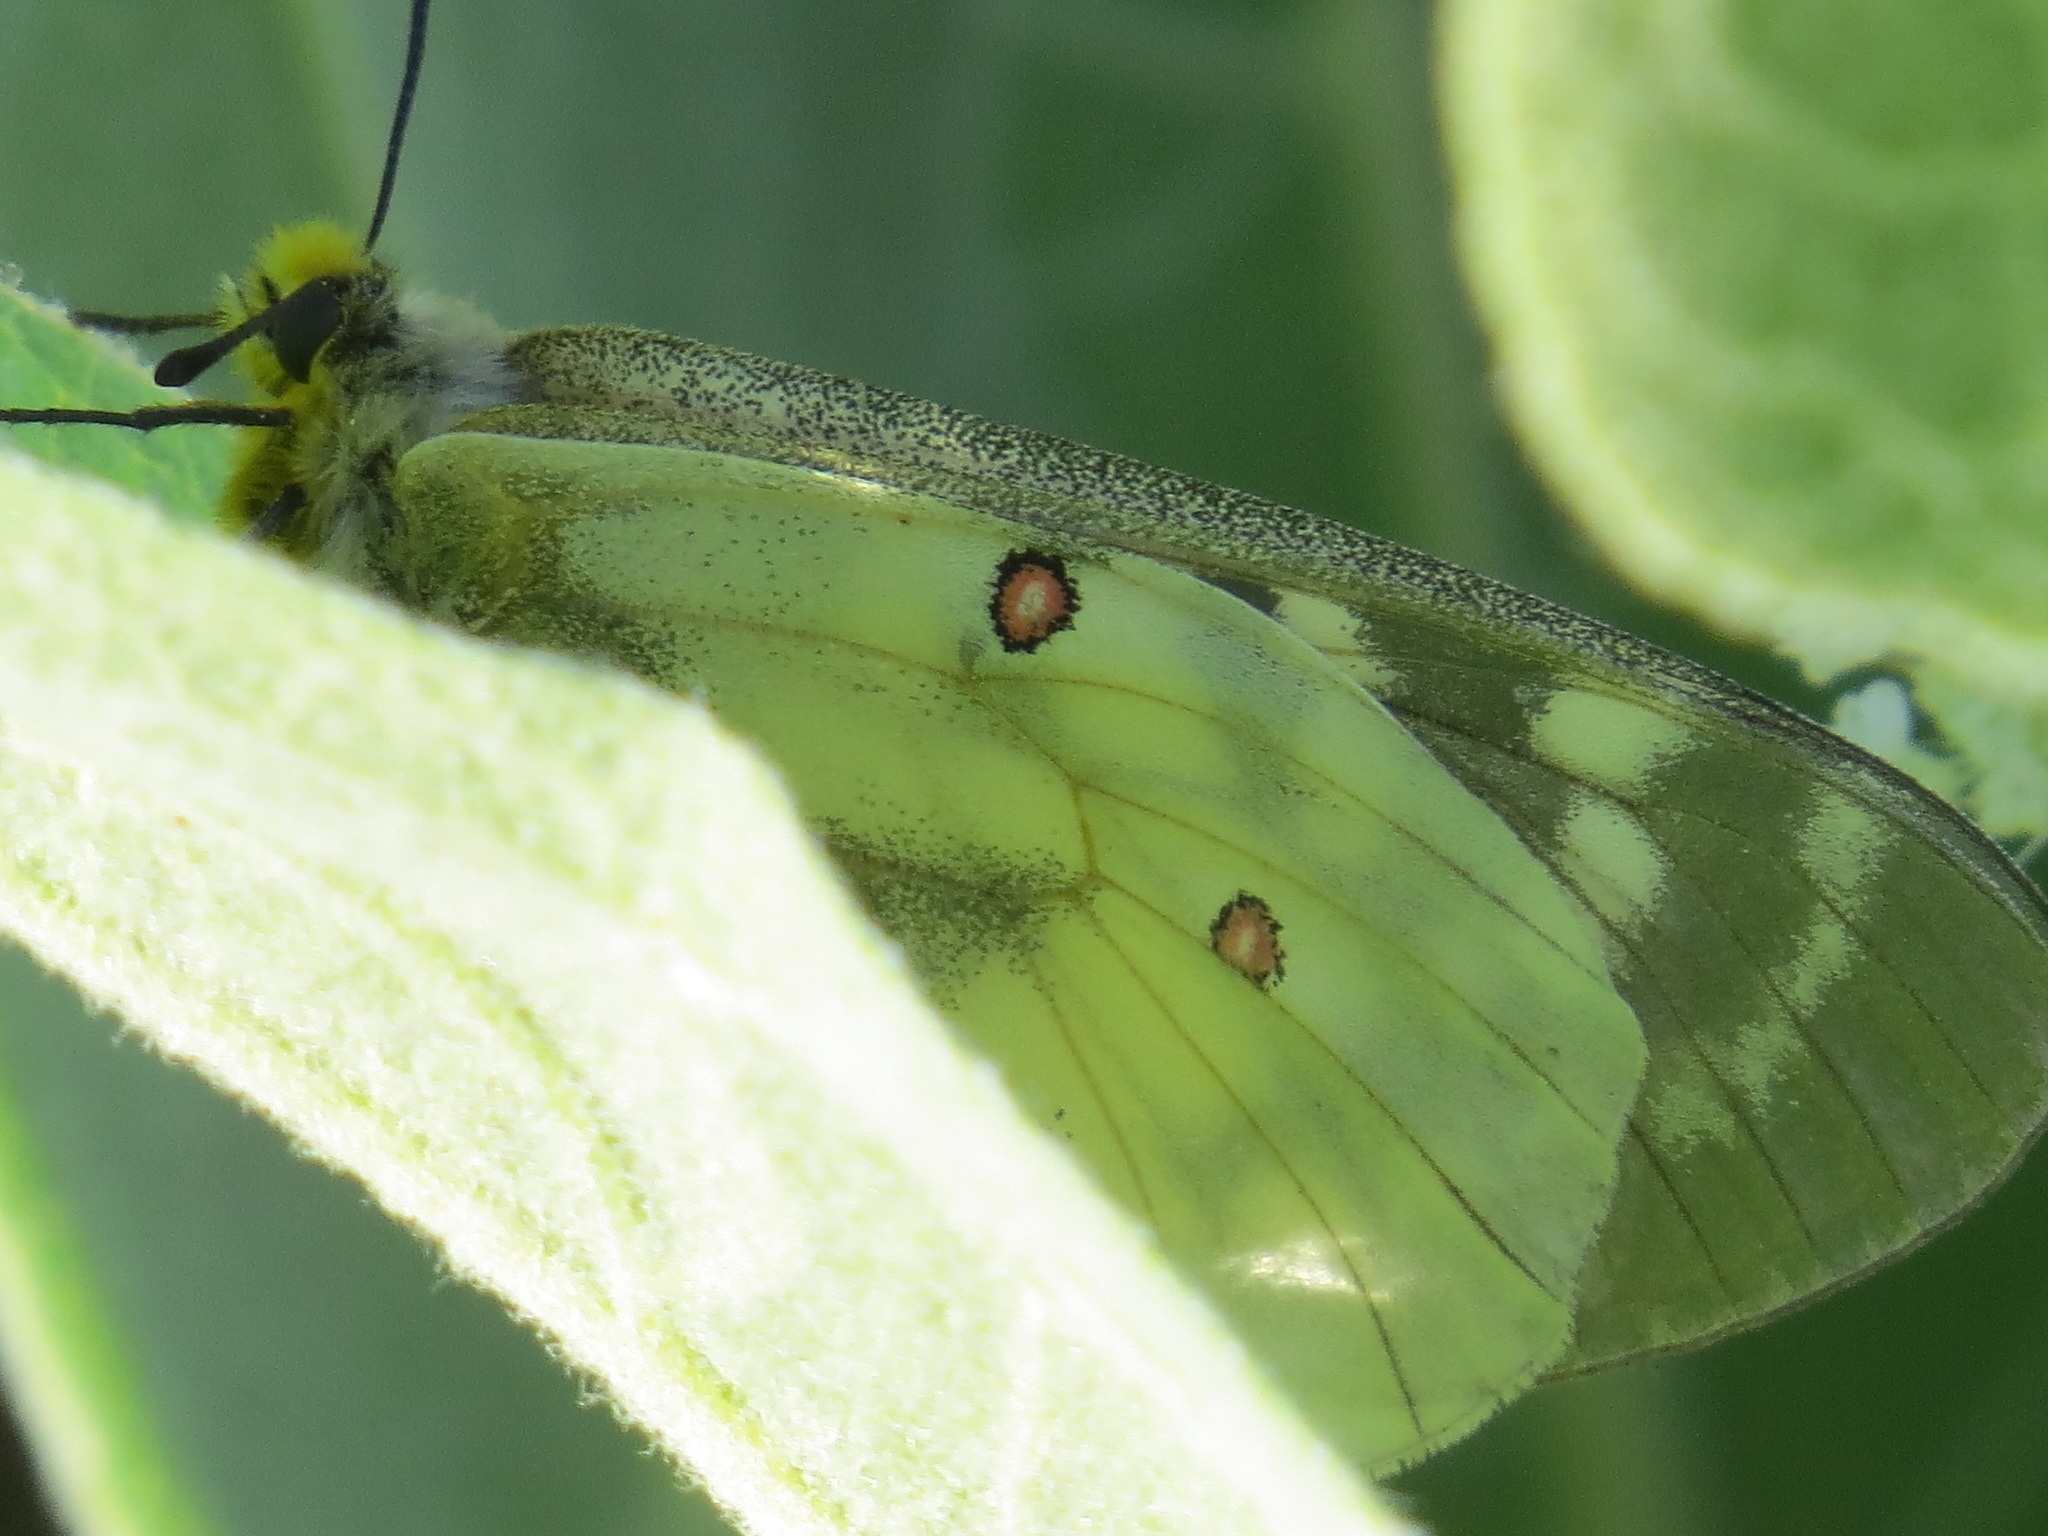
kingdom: Animalia
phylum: Arthropoda
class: Insecta
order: Lepidoptera
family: Papilionidae
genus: Parnassius
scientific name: Parnassius clodius
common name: American apollo
